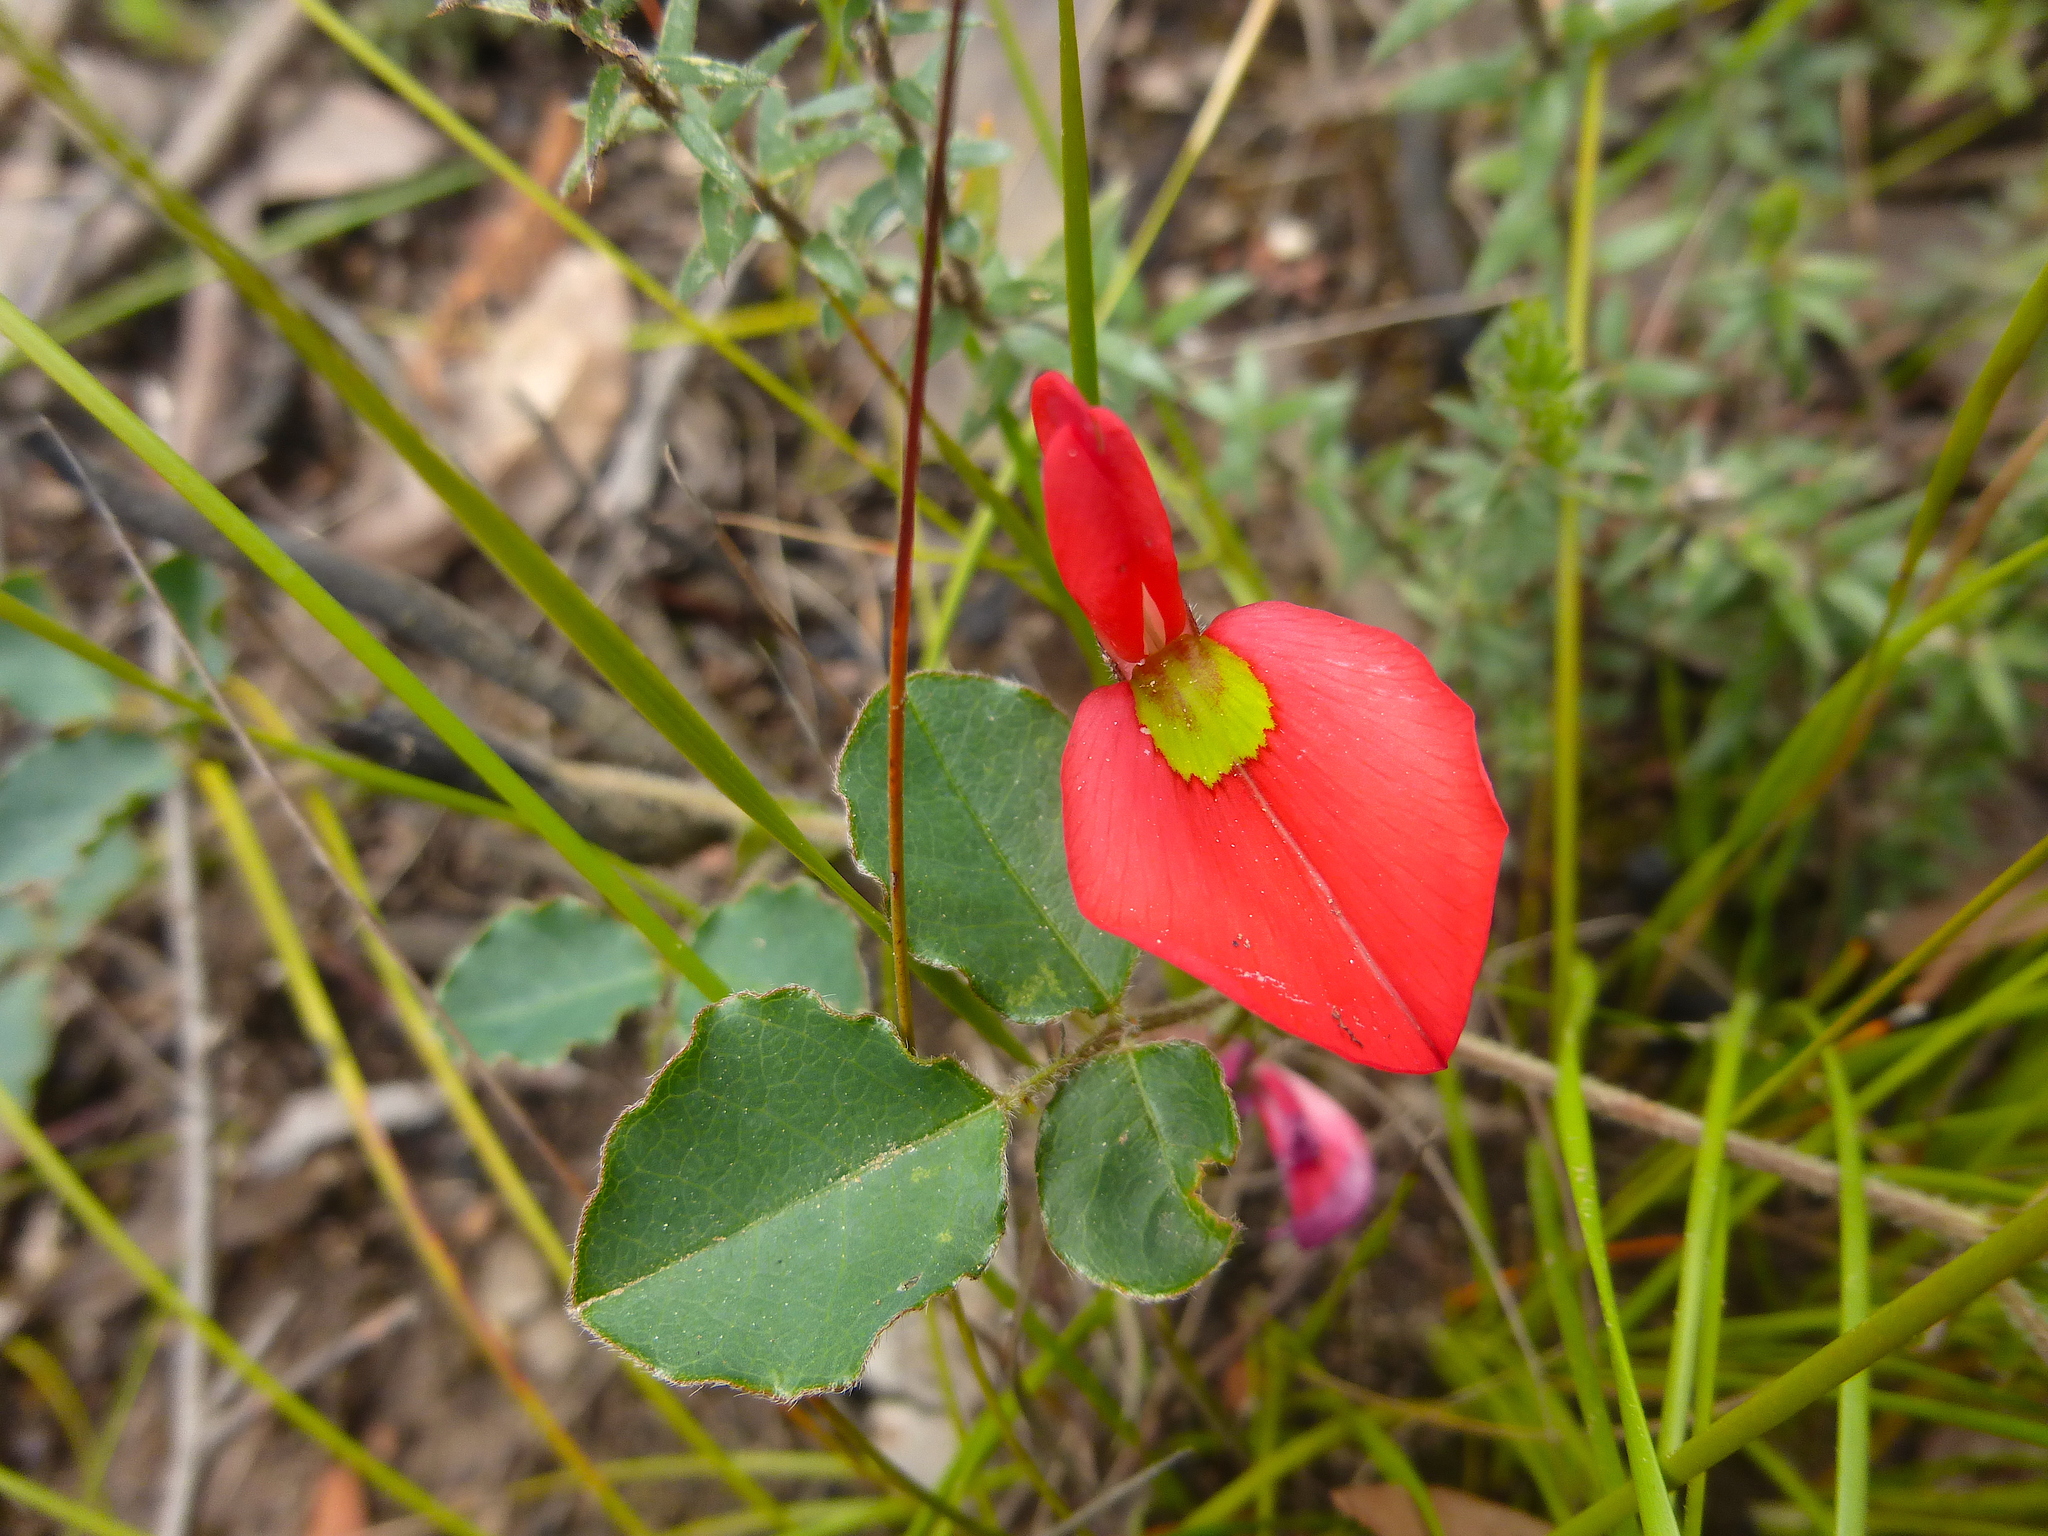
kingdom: Plantae
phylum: Tracheophyta
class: Magnoliopsida
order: Fabales
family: Fabaceae
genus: Kennedia
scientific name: Kennedia prostrata
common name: Running-postman
